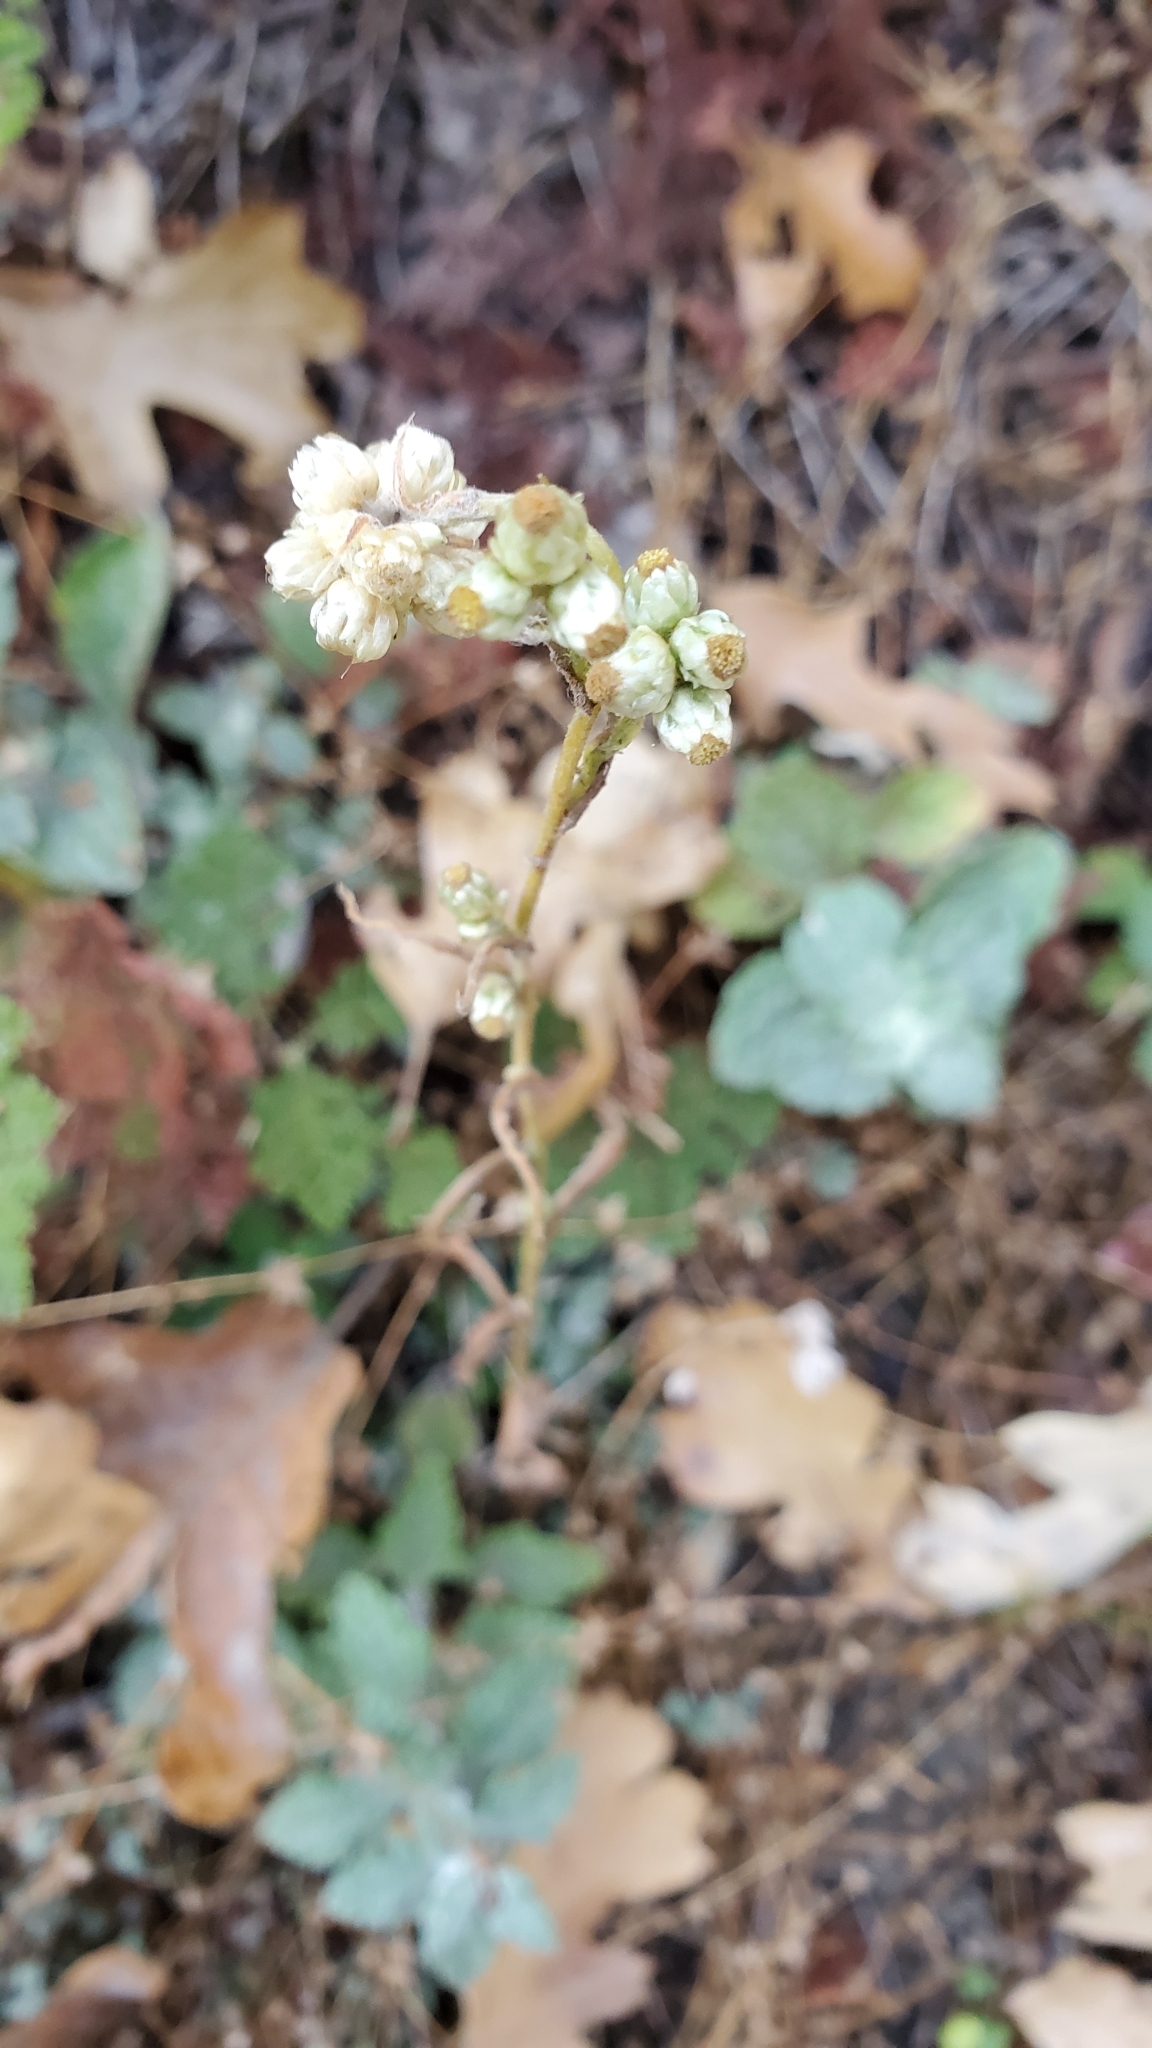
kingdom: Plantae
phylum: Tracheophyta
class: Magnoliopsida
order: Asterales
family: Asteraceae
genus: Anaphalis
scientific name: Anaphalis margaritacea
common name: Pearly everlasting
